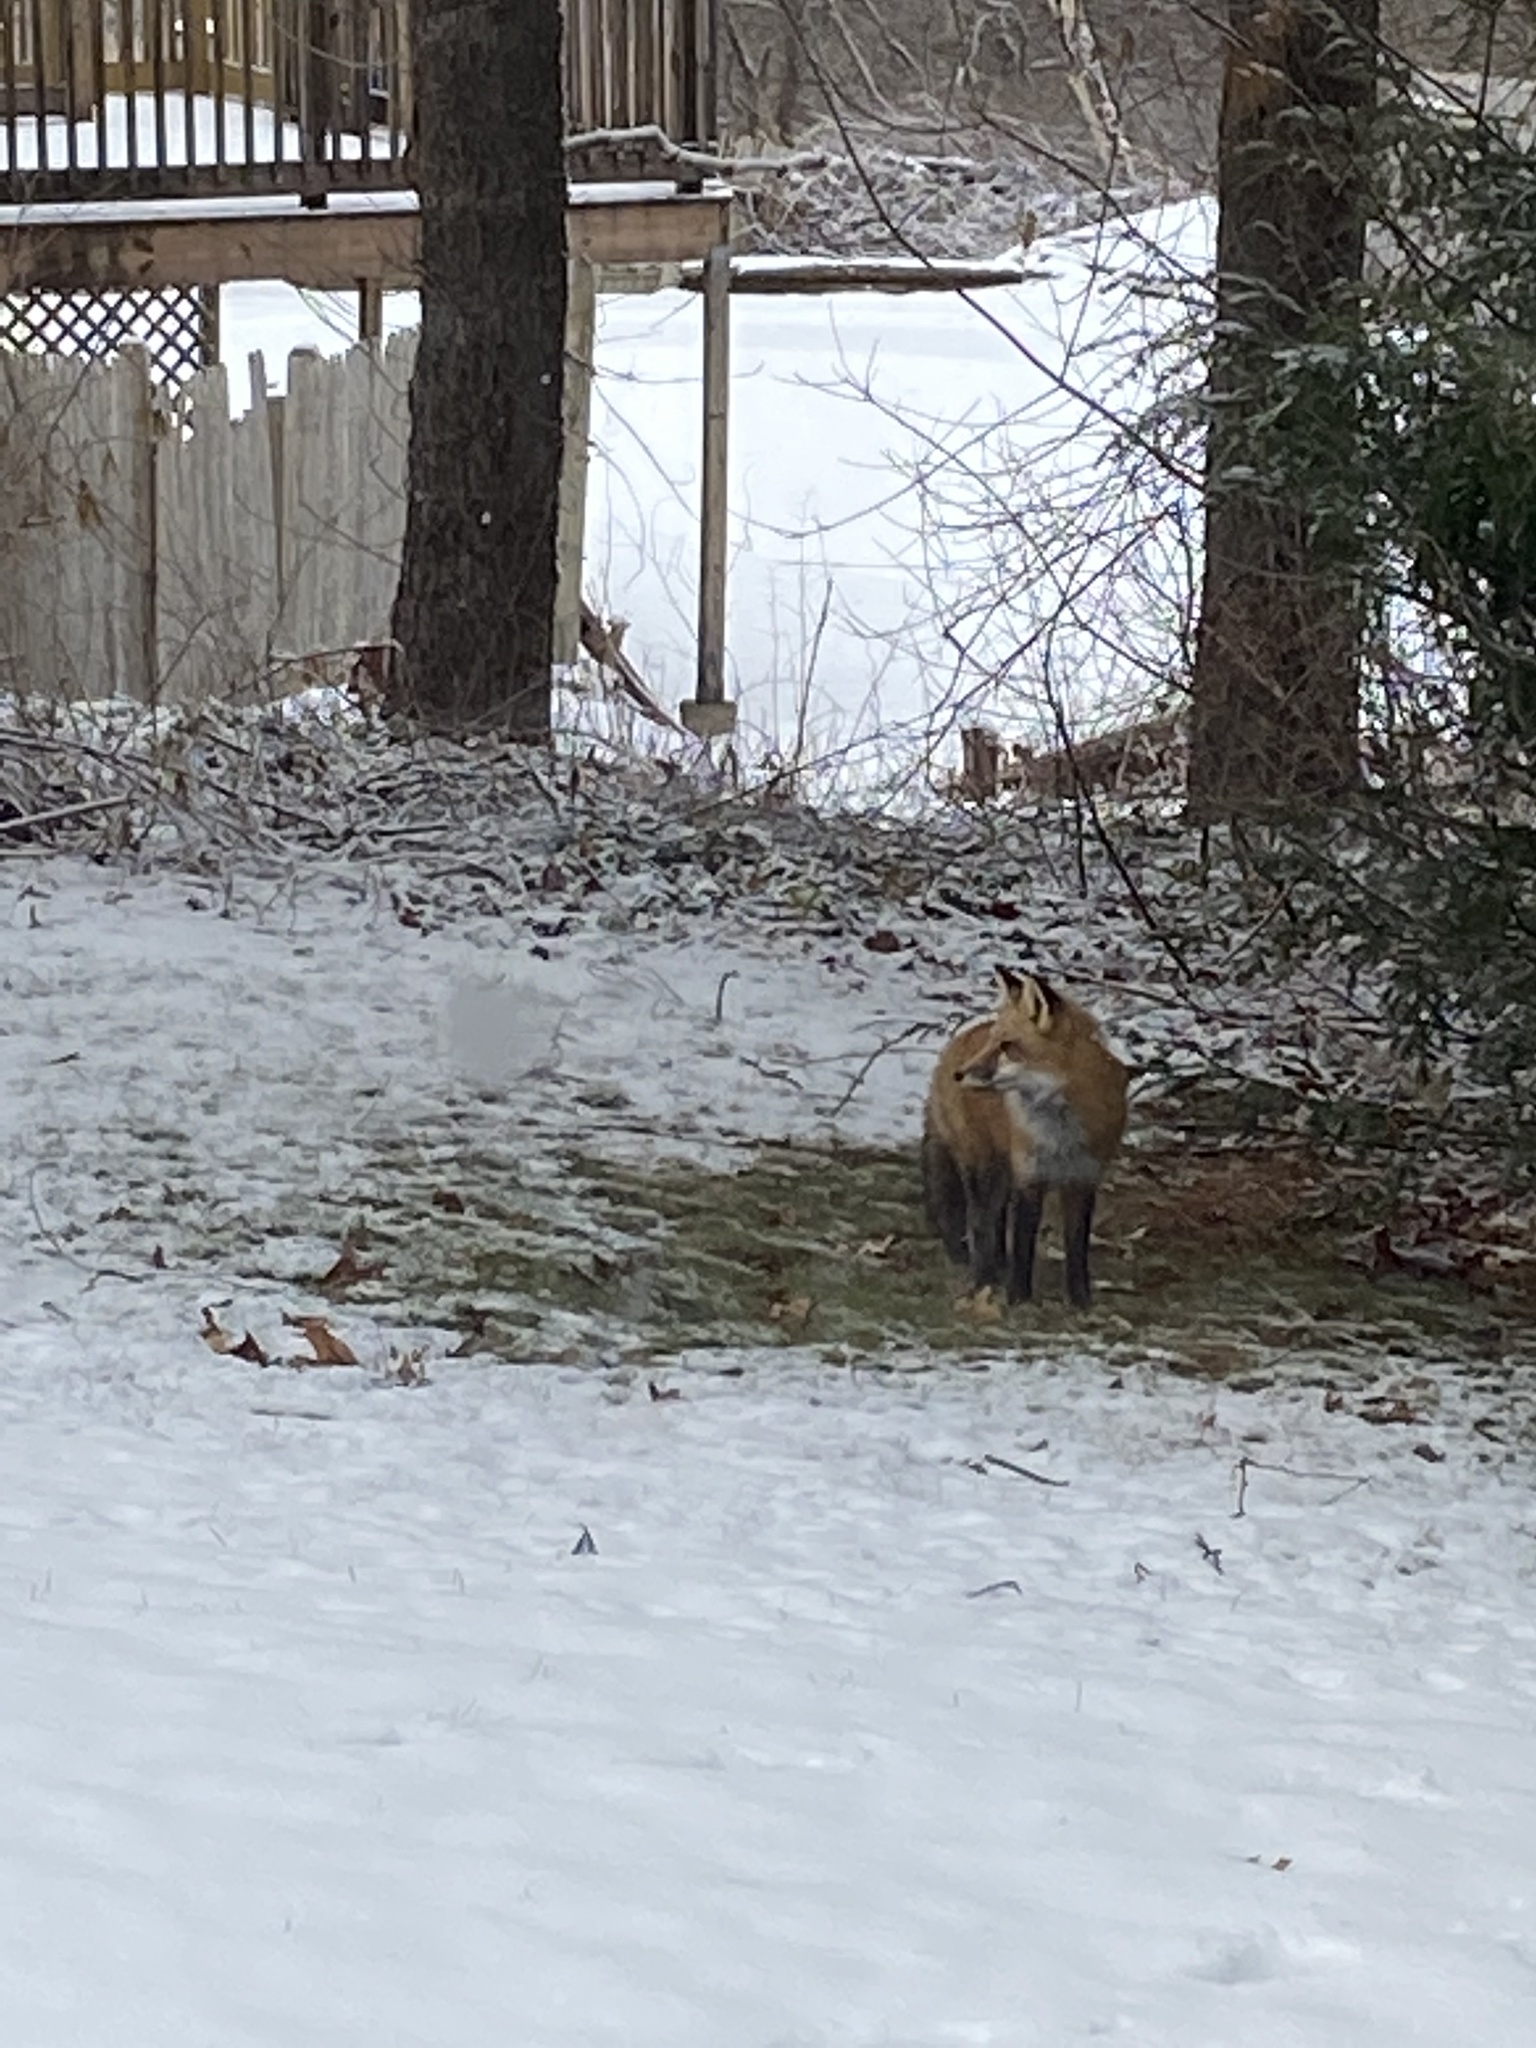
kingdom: Animalia
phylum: Chordata
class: Mammalia
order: Carnivora
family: Canidae
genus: Vulpes
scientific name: Vulpes vulpes
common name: Red fox
